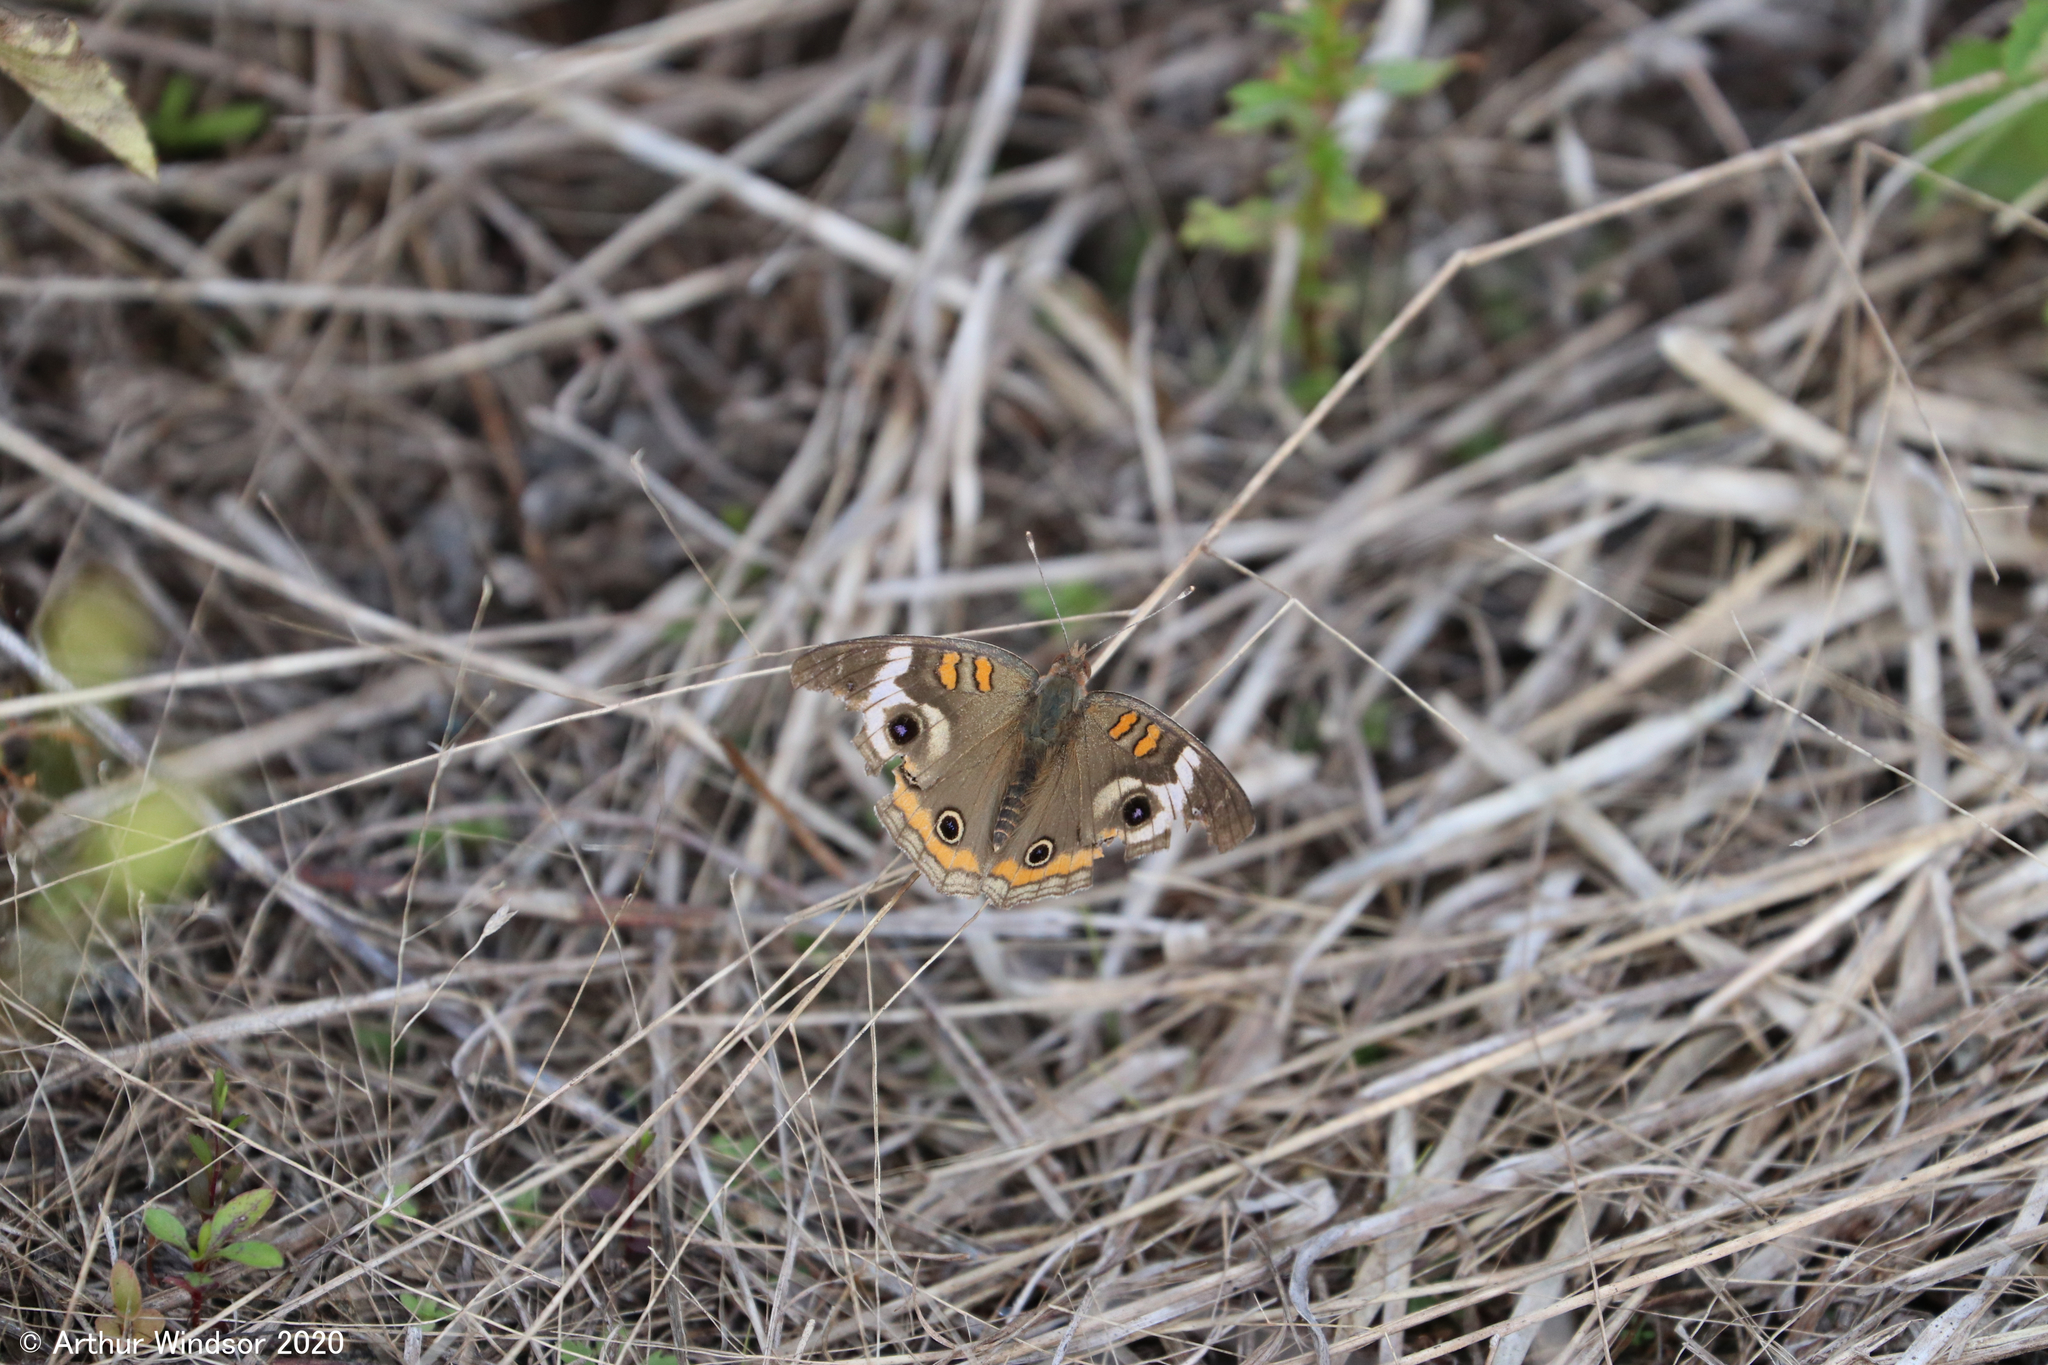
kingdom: Animalia
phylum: Arthropoda
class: Insecta
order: Lepidoptera
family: Nymphalidae
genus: Junonia
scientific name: Junonia coenia
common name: Common buckeye
